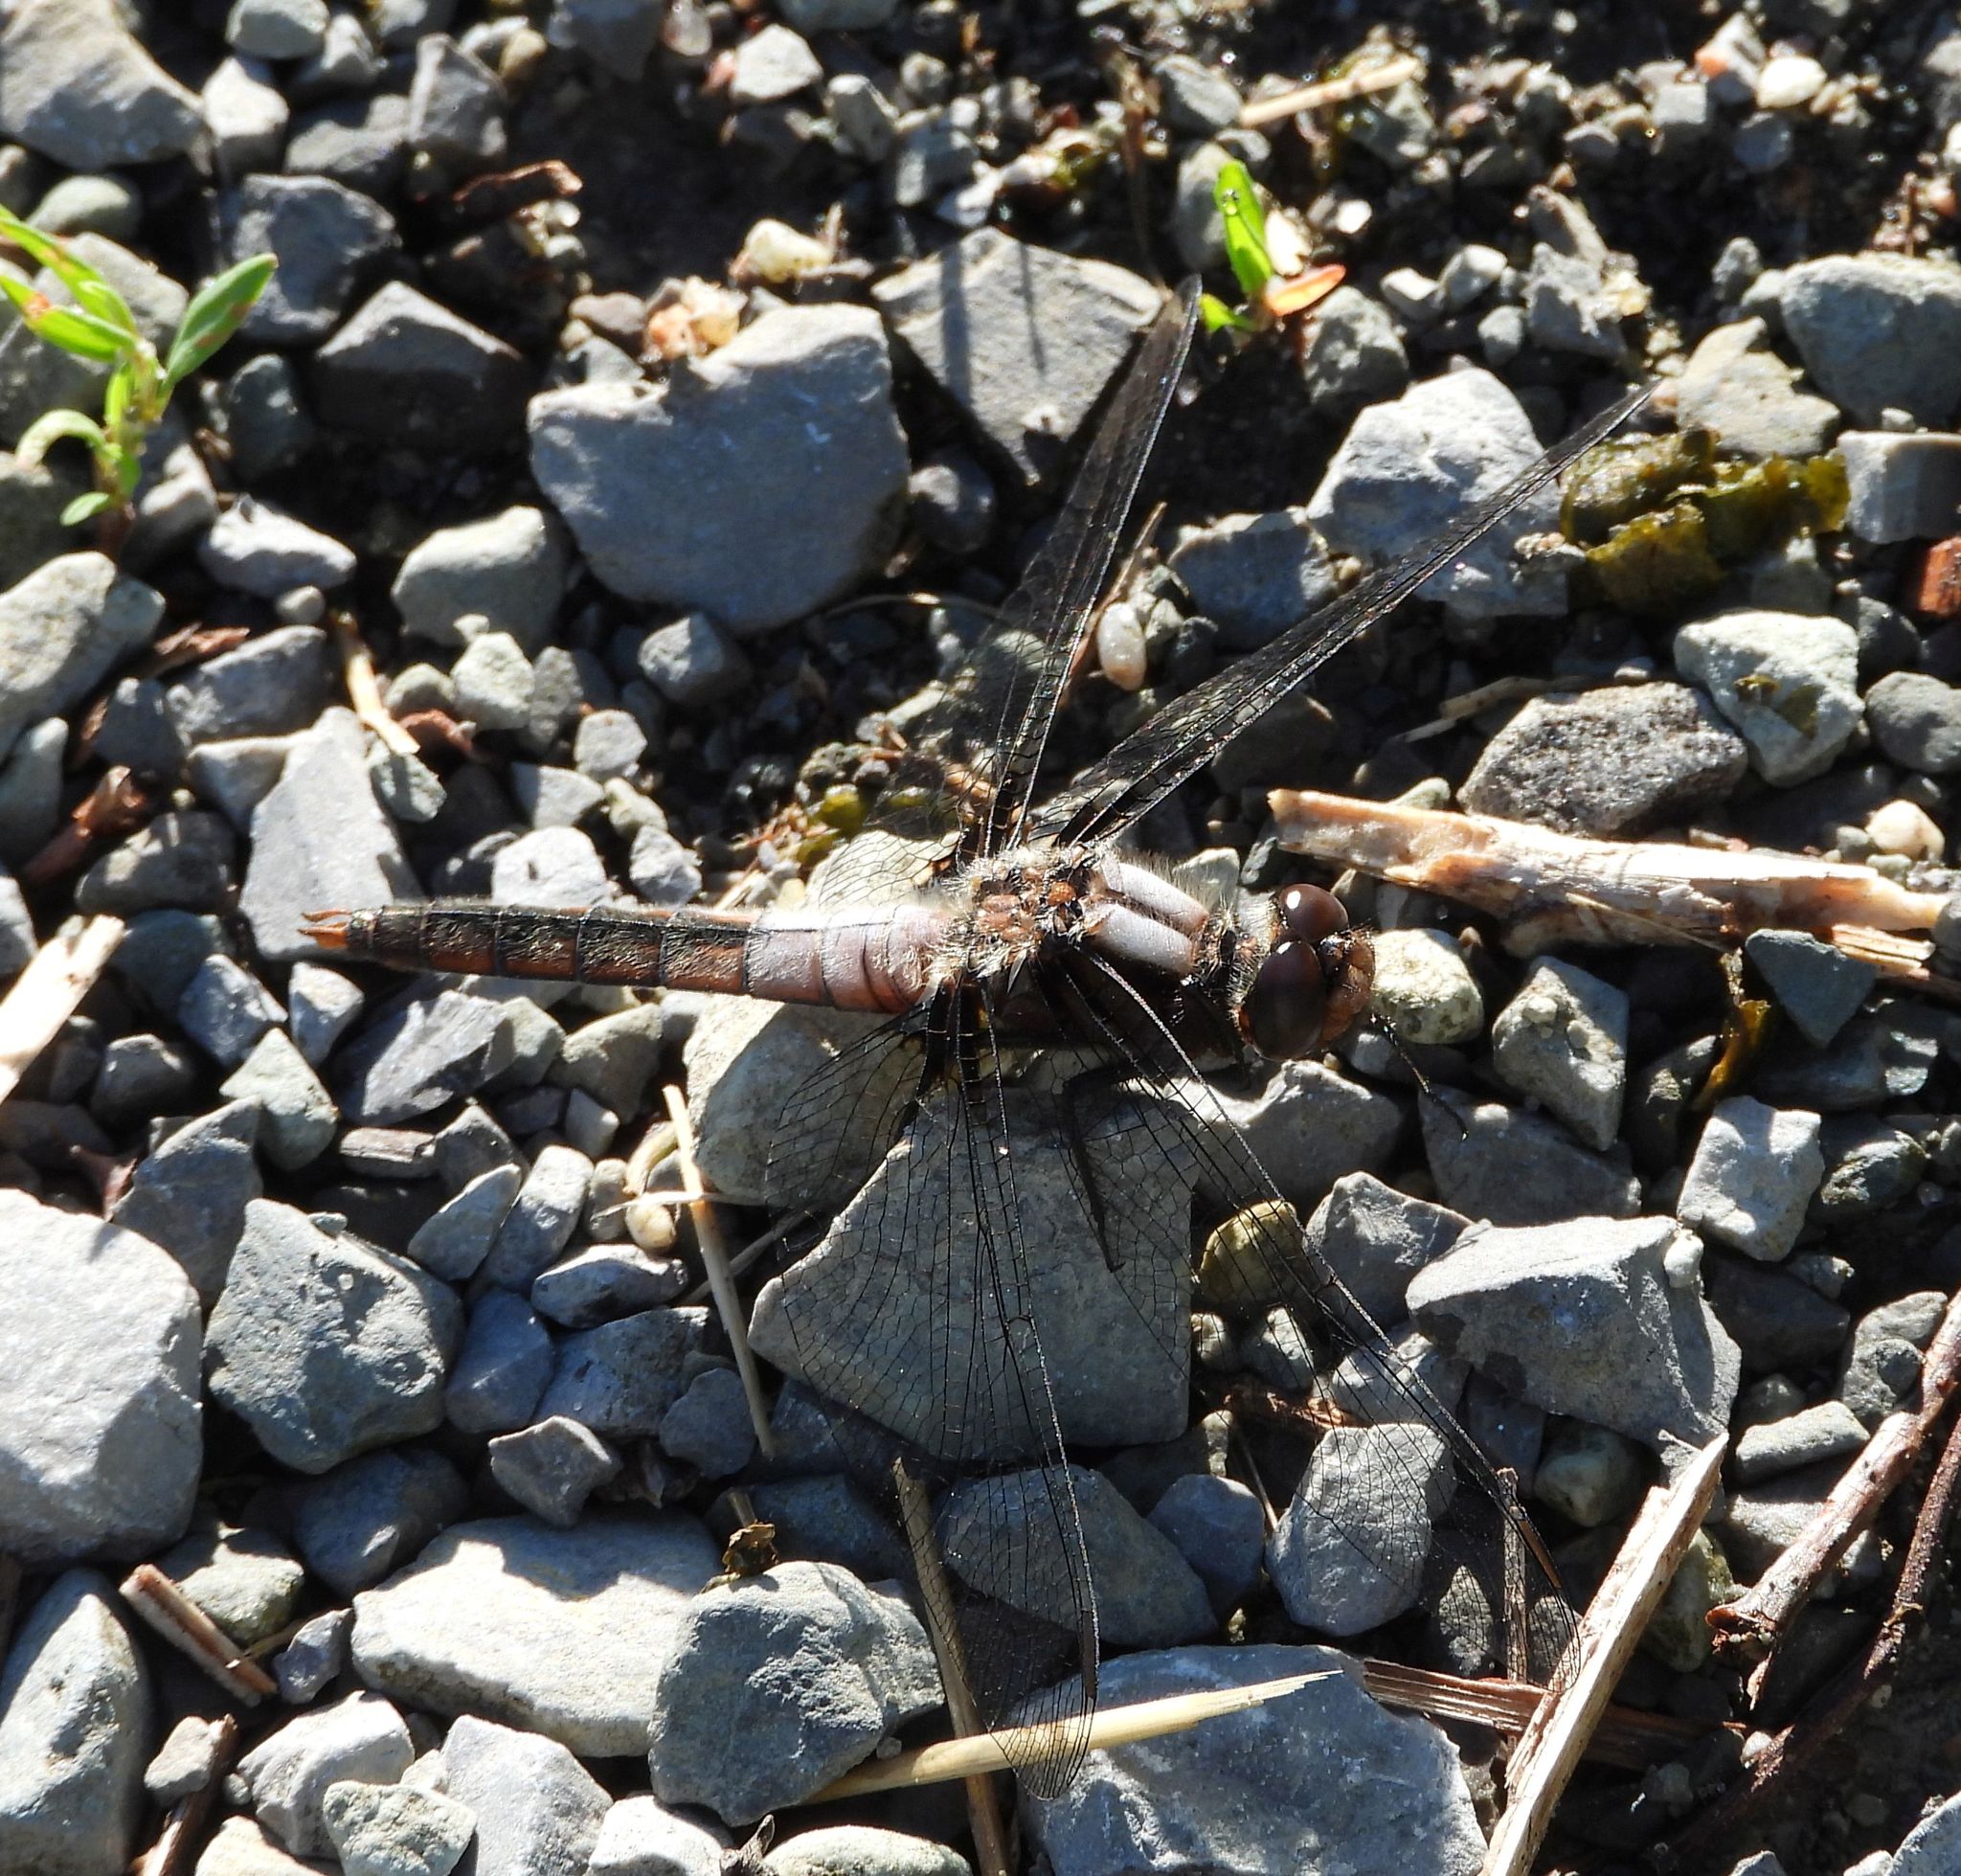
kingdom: Animalia
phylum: Arthropoda
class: Insecta
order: Odonata
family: Libellulidae
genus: Ladona
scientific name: Ladona julia
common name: Chalk-fronted corporal
